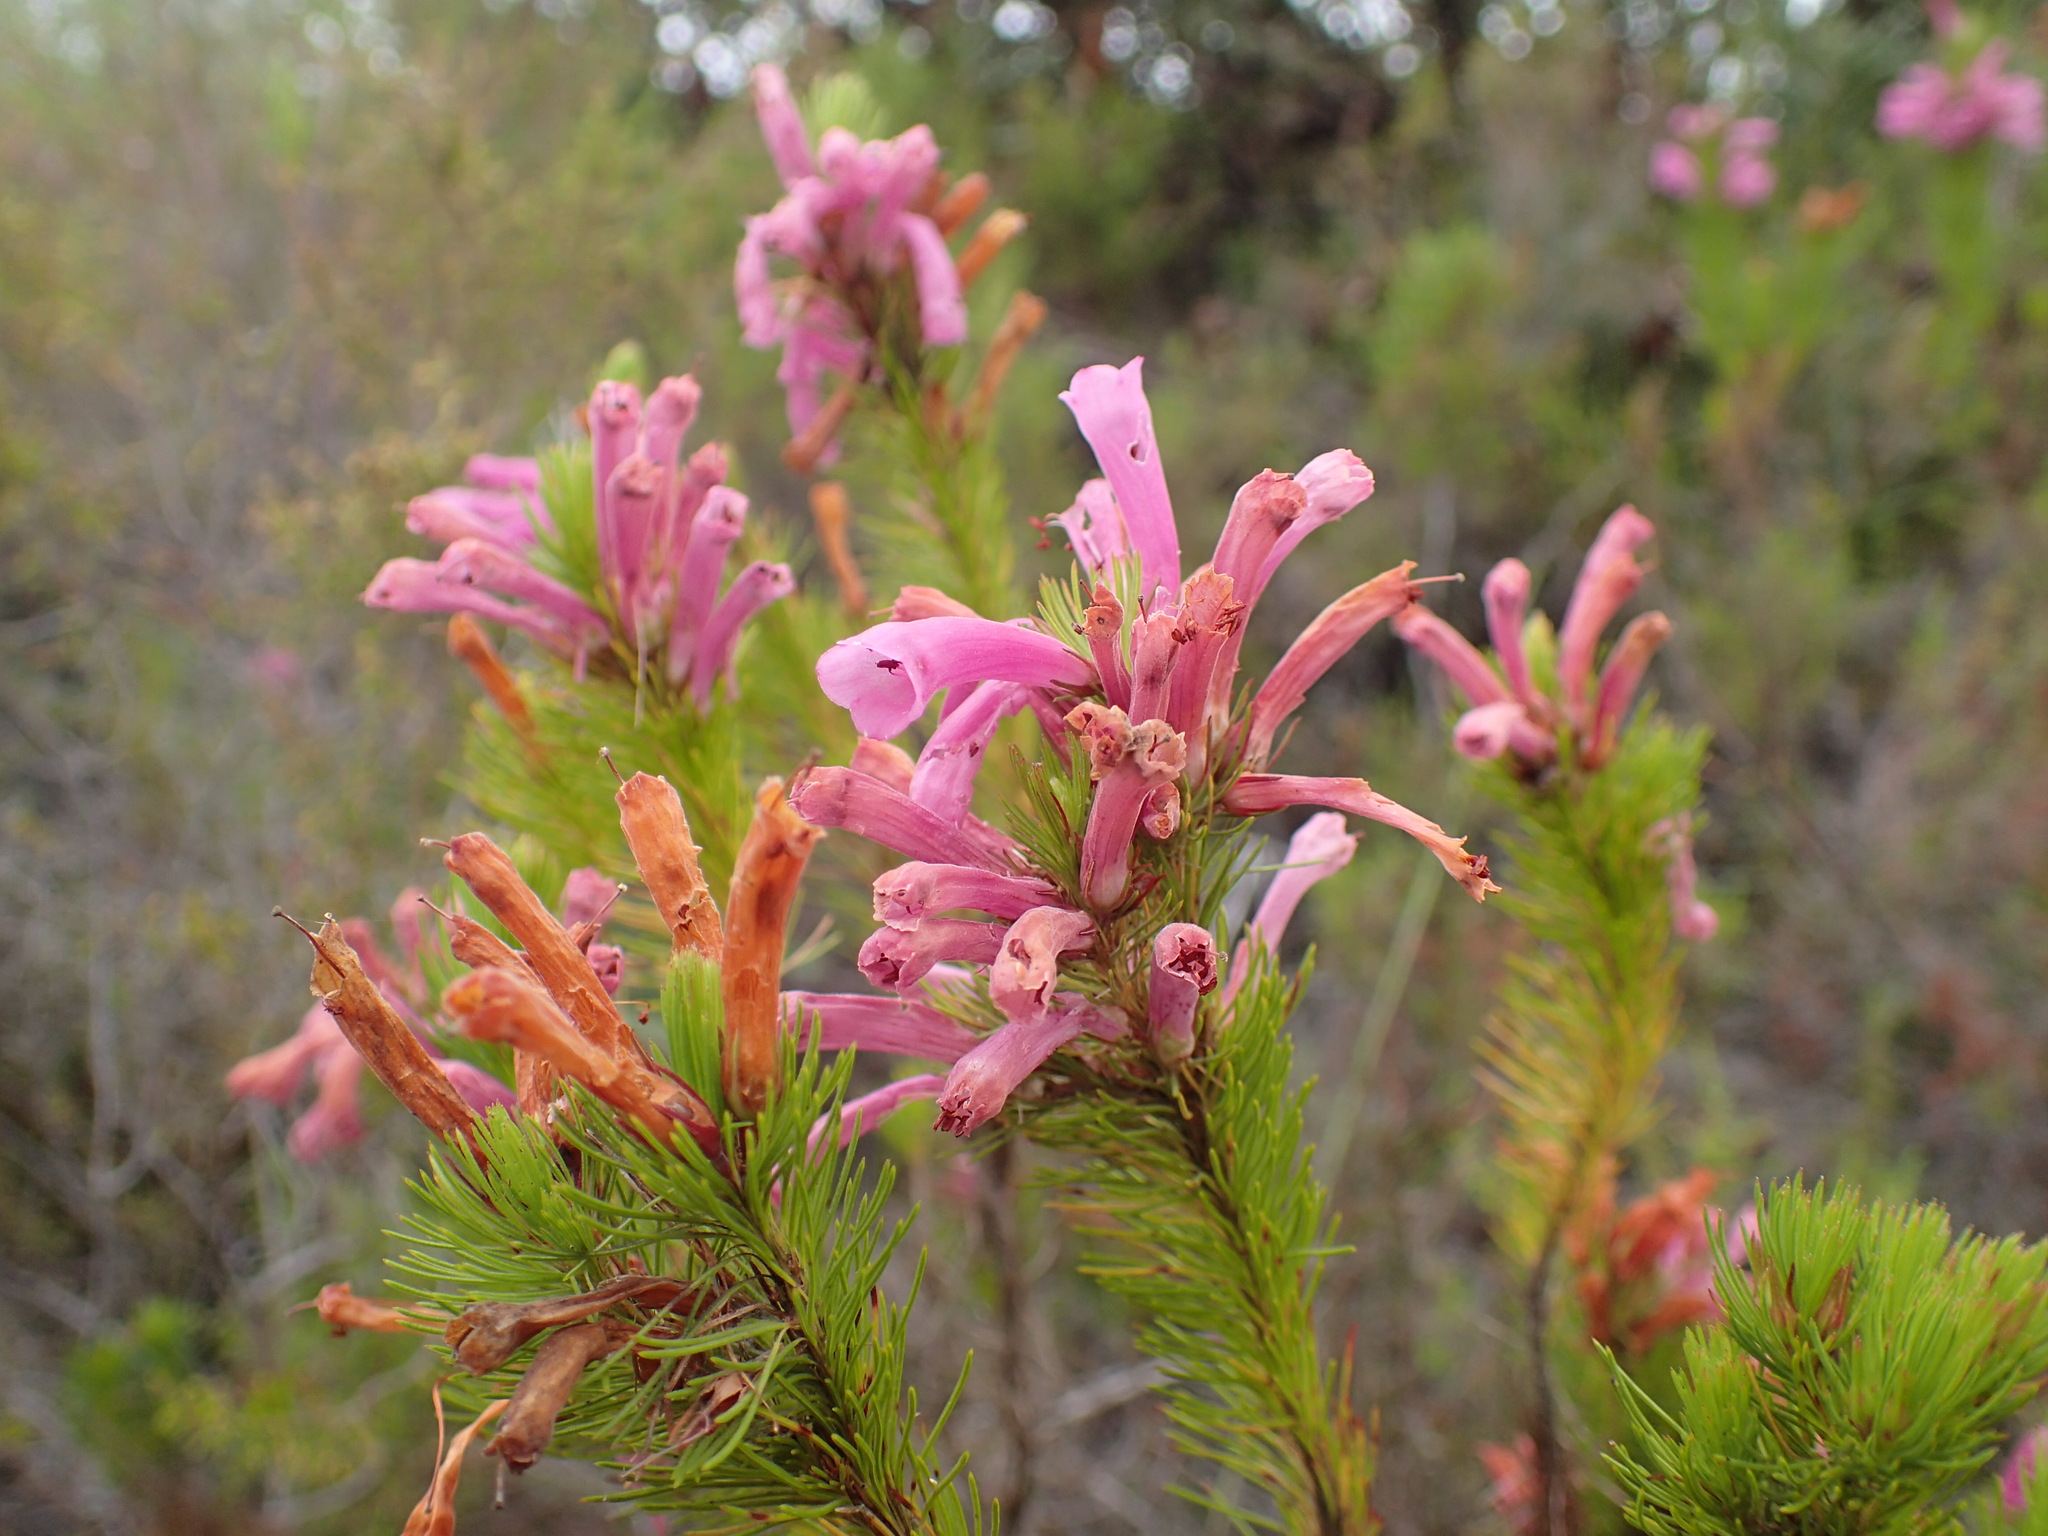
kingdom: Plantae
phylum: Tracheophyta
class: Magnoliopsida
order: Ericales
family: Ericaceae
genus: Erica
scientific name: Erica vestita
